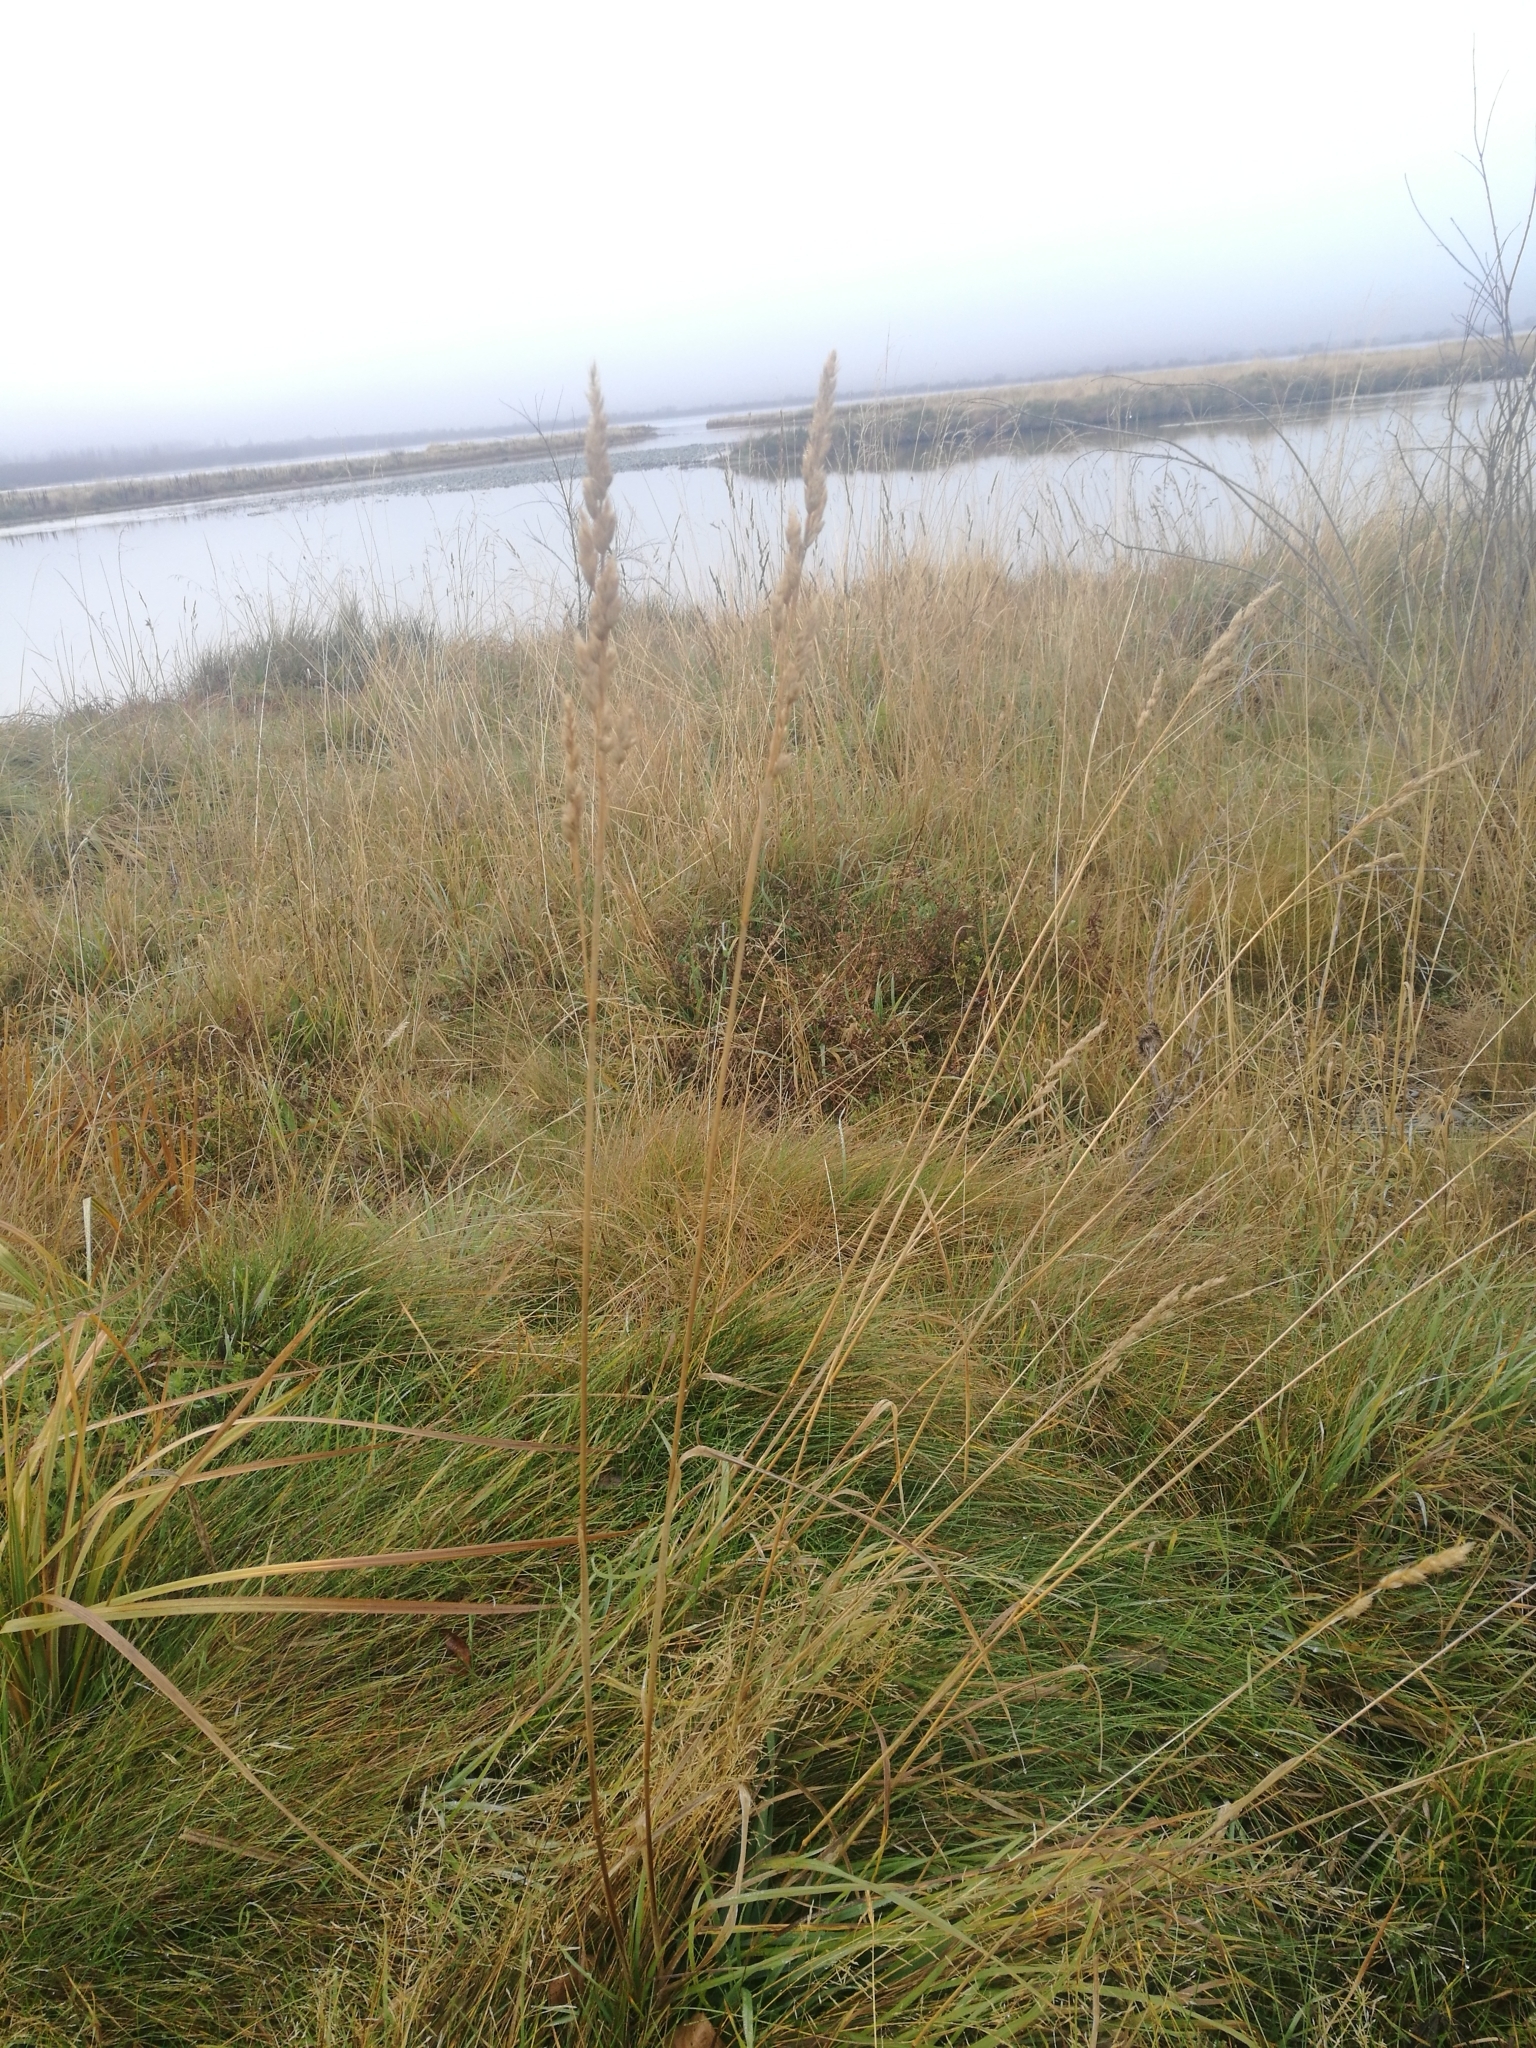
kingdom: Plantae
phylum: Tracheophyta
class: Liliopsida
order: Poales
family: Poaceae
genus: Dactylis
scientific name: Dactylis glomerata
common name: Orchardgrass
